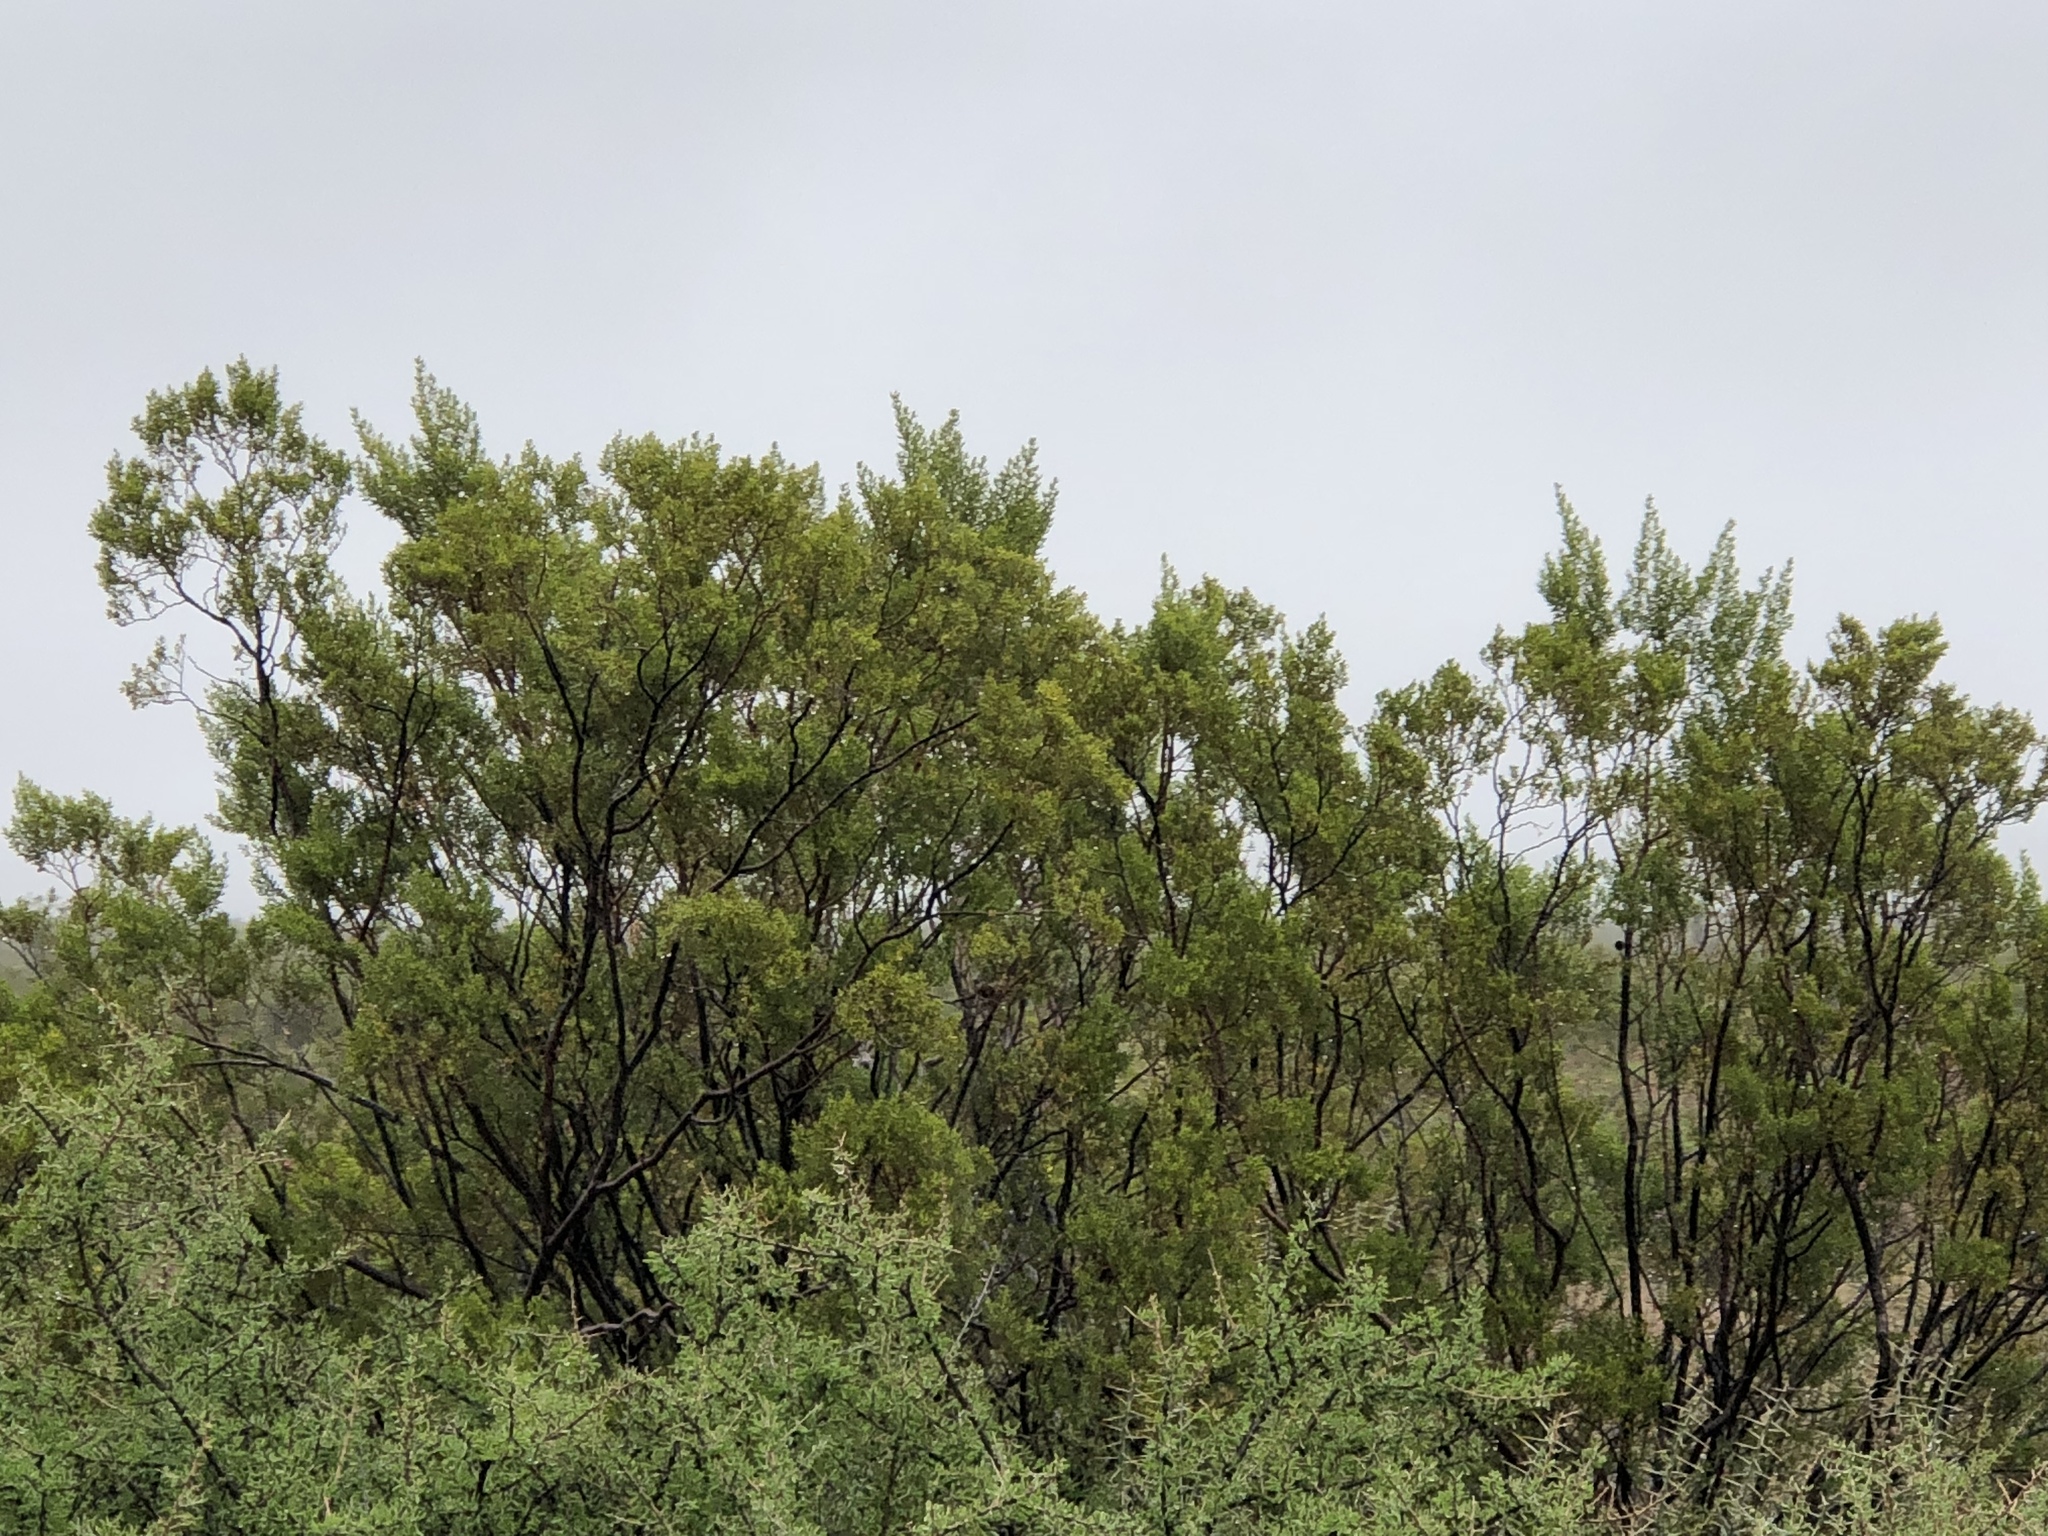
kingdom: Plantae
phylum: Tracheophyta
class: Magnoliopsida
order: Zygophyllales
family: Zygophyllaceae
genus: Larrea
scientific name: Larrea tridentata
